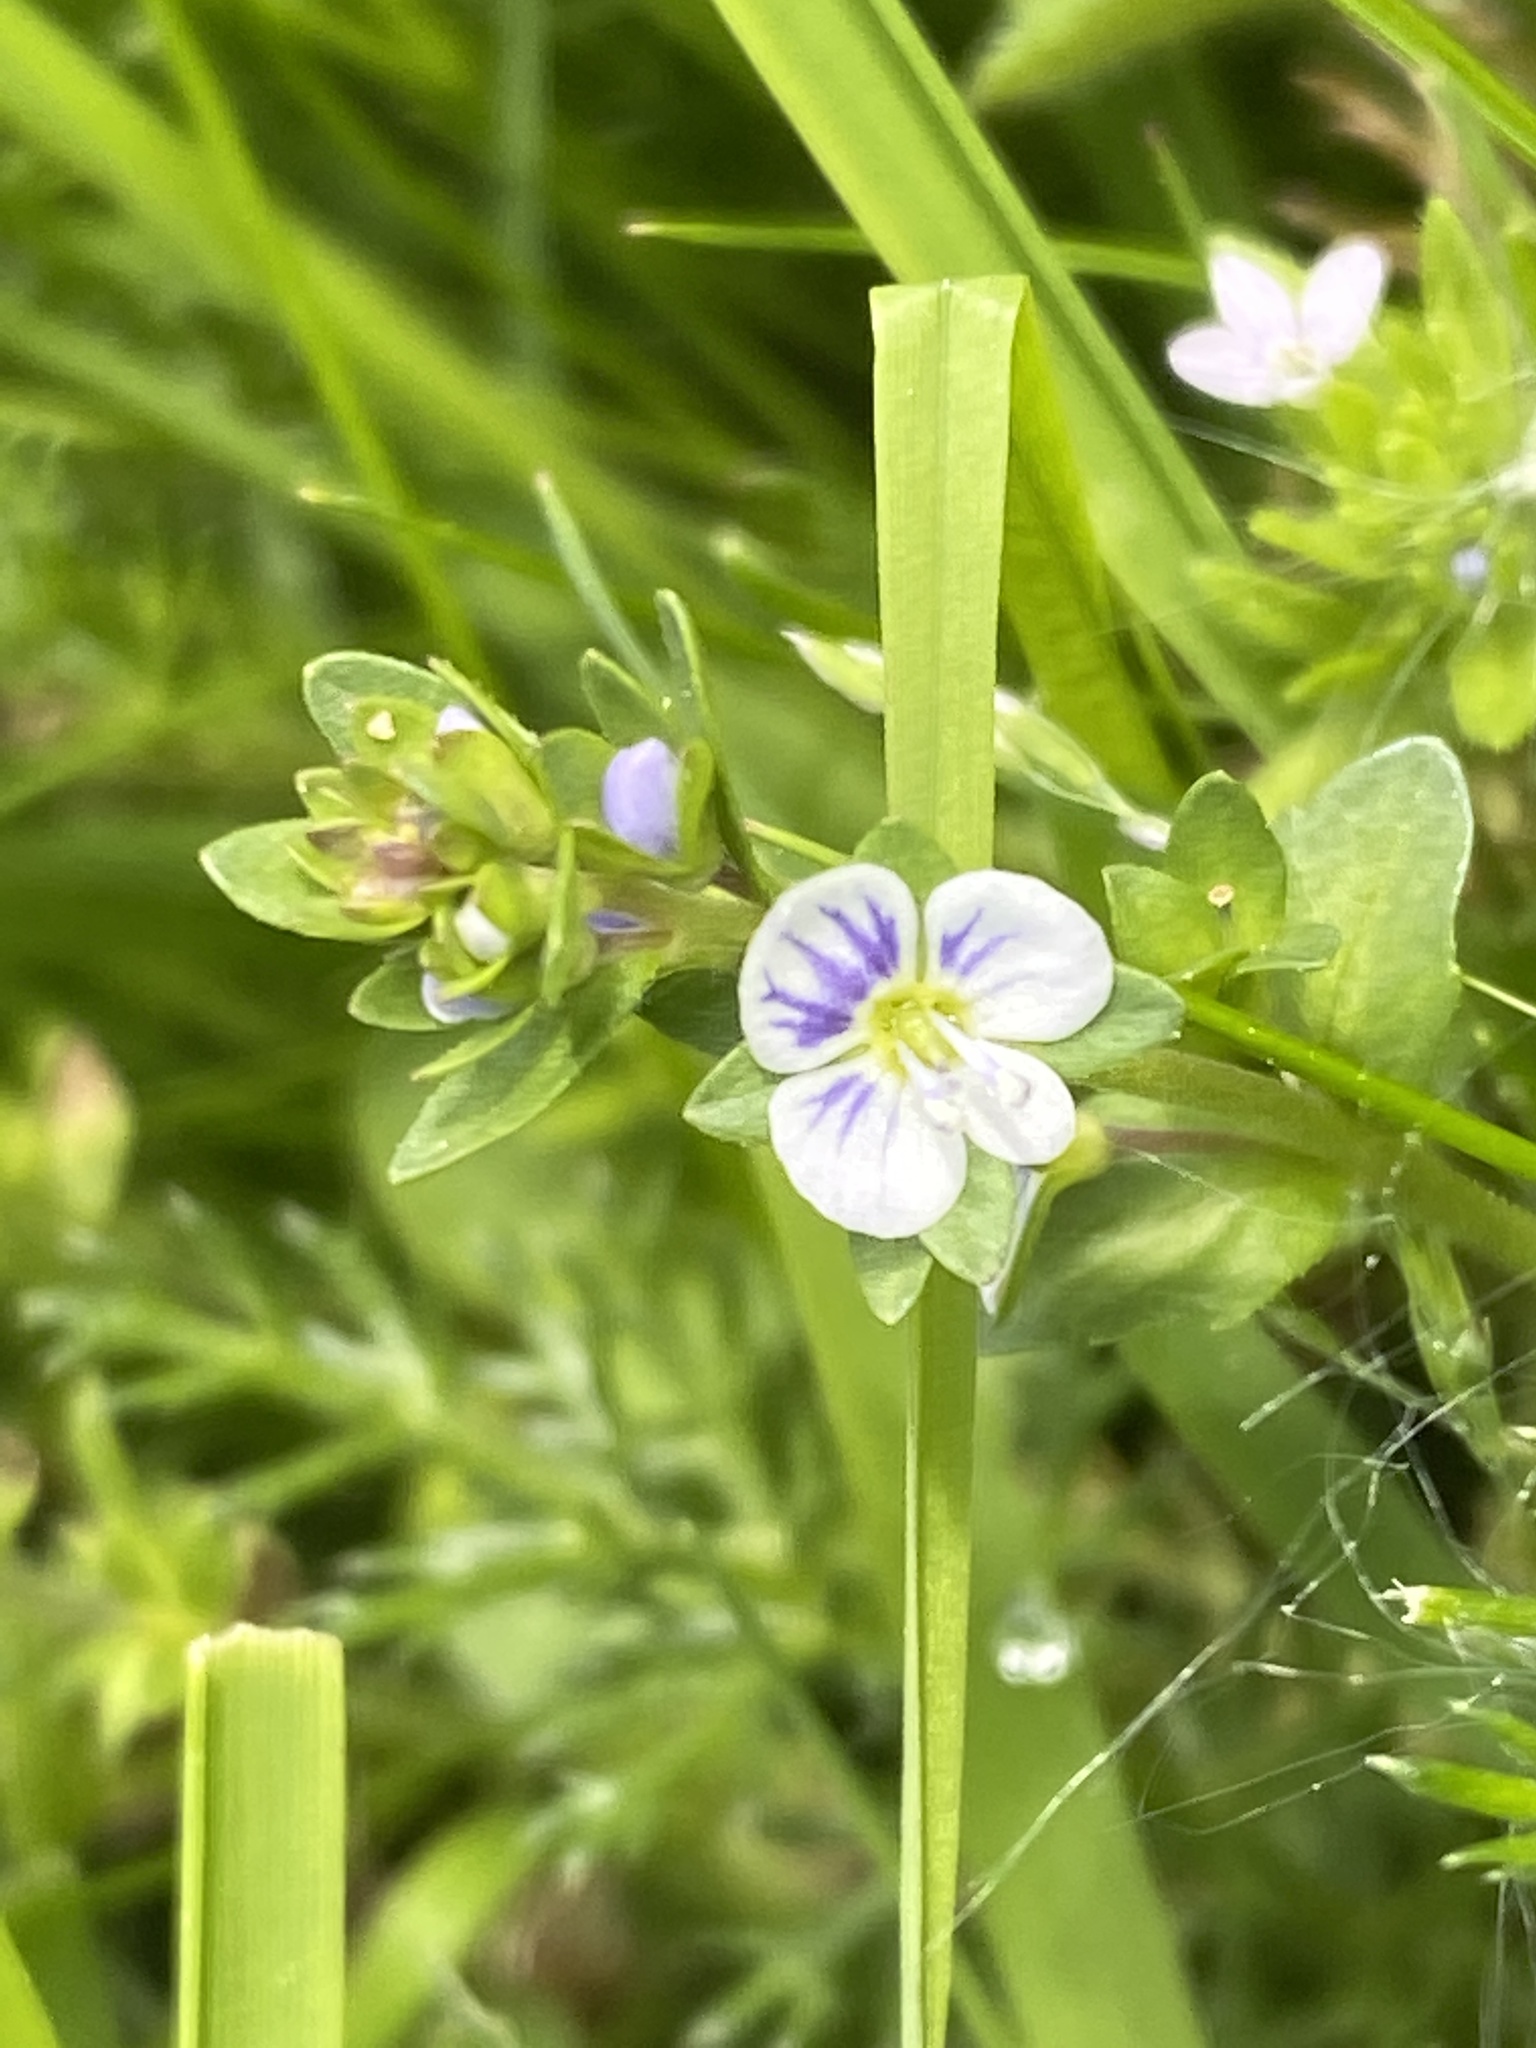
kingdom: Plantae
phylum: Tracheophyta
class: Magnoliopsida
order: Lamiales
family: Plantaginaceae
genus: Veronica
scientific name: Veronica serpyllifolia
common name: Thyme-leaved speedwell
